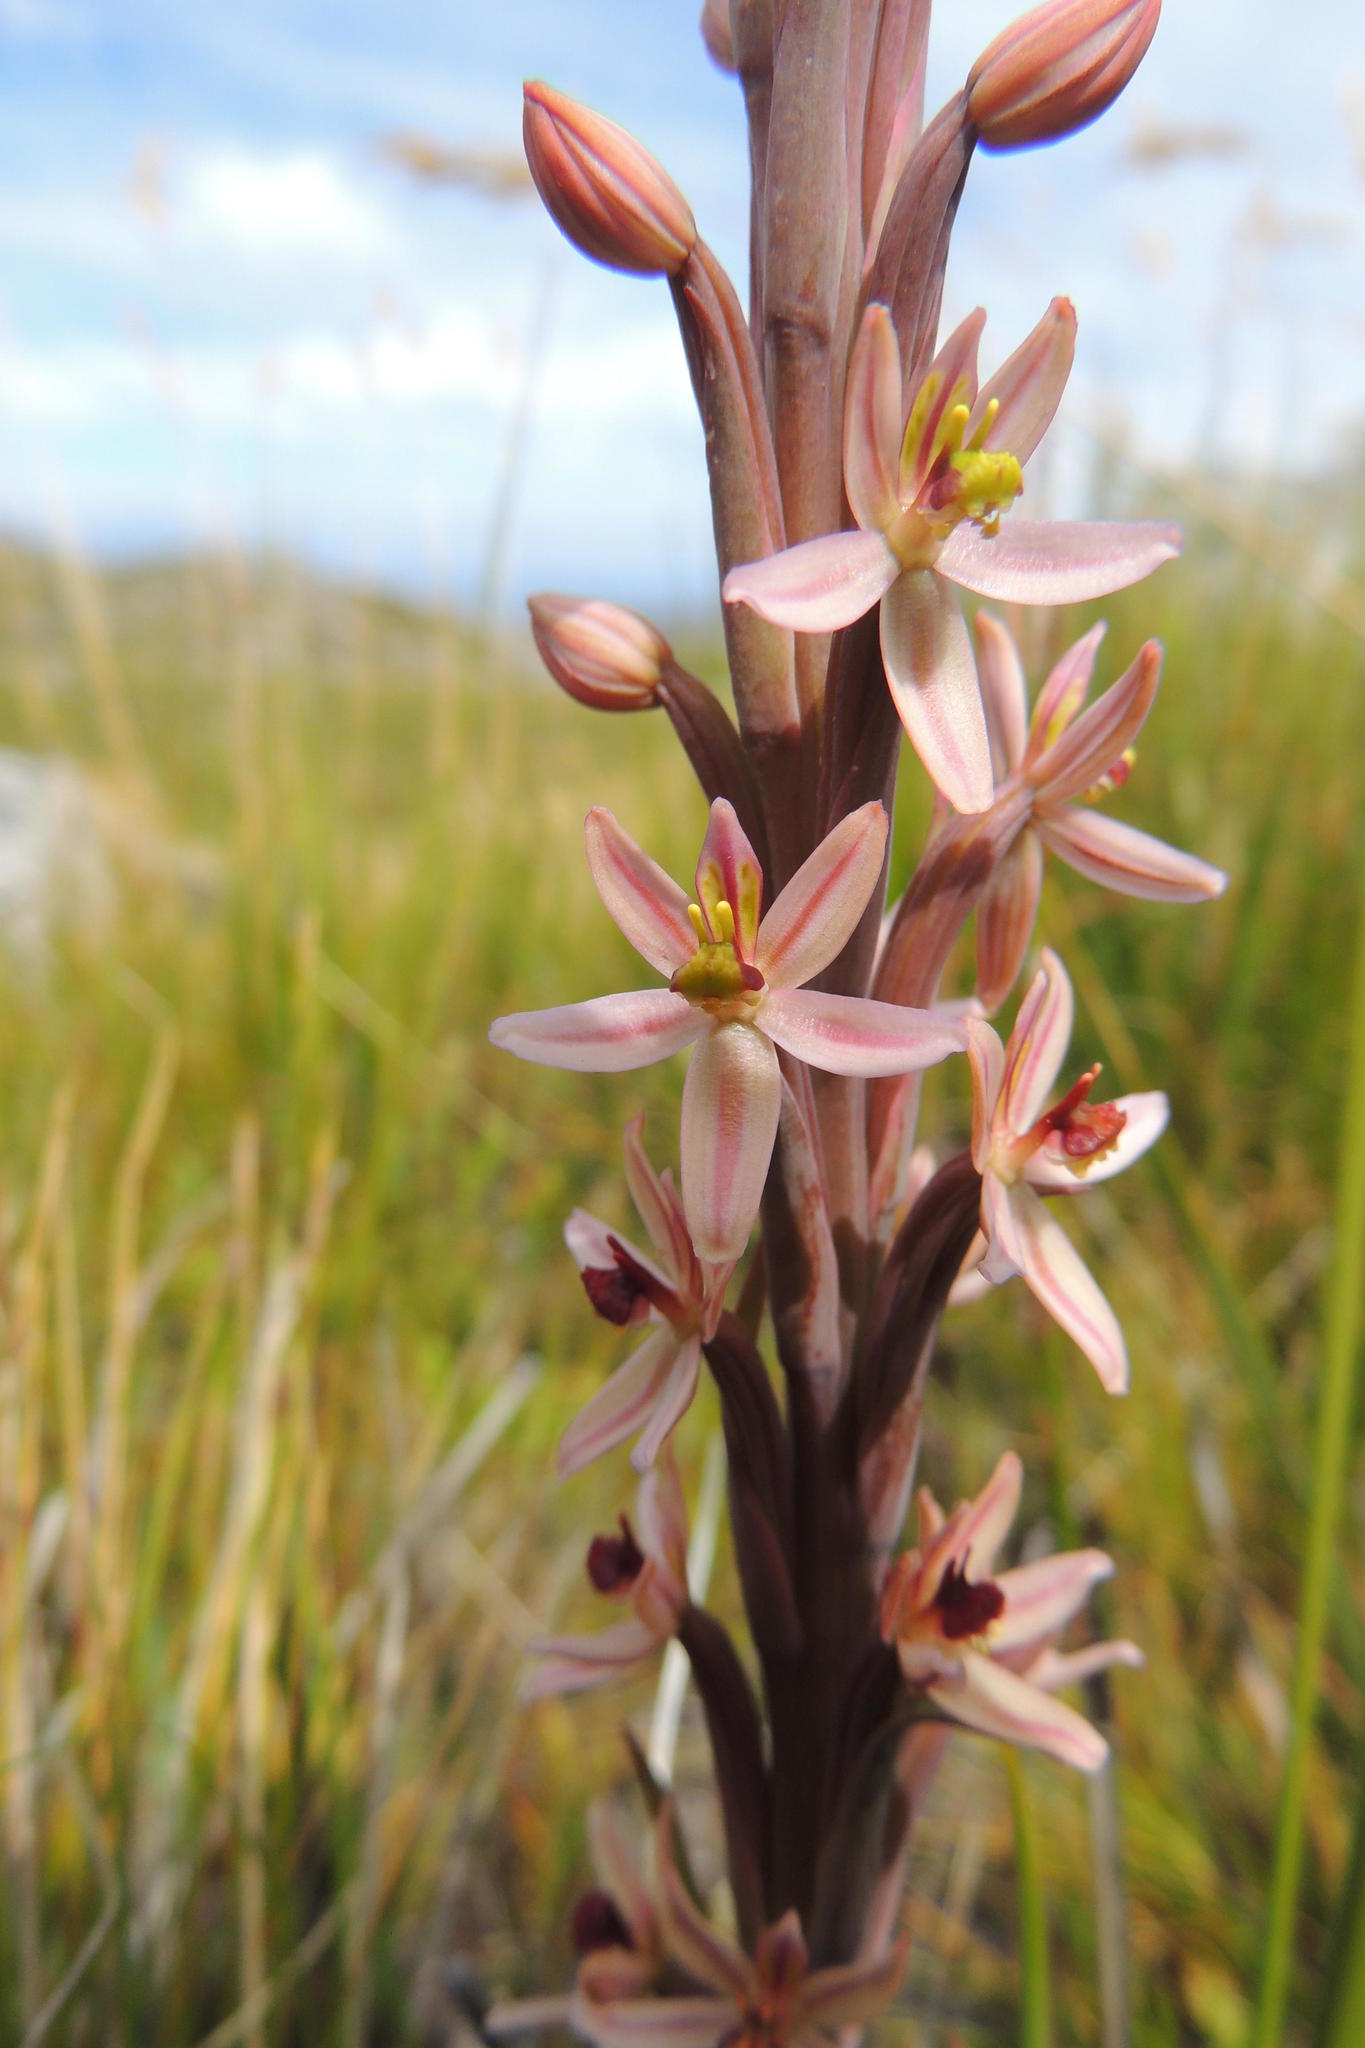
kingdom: Plantae
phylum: Tracheophyta
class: Liliopsida
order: Asparagales
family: Orchidaceae
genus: Pachites
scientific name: Pachites appressus
